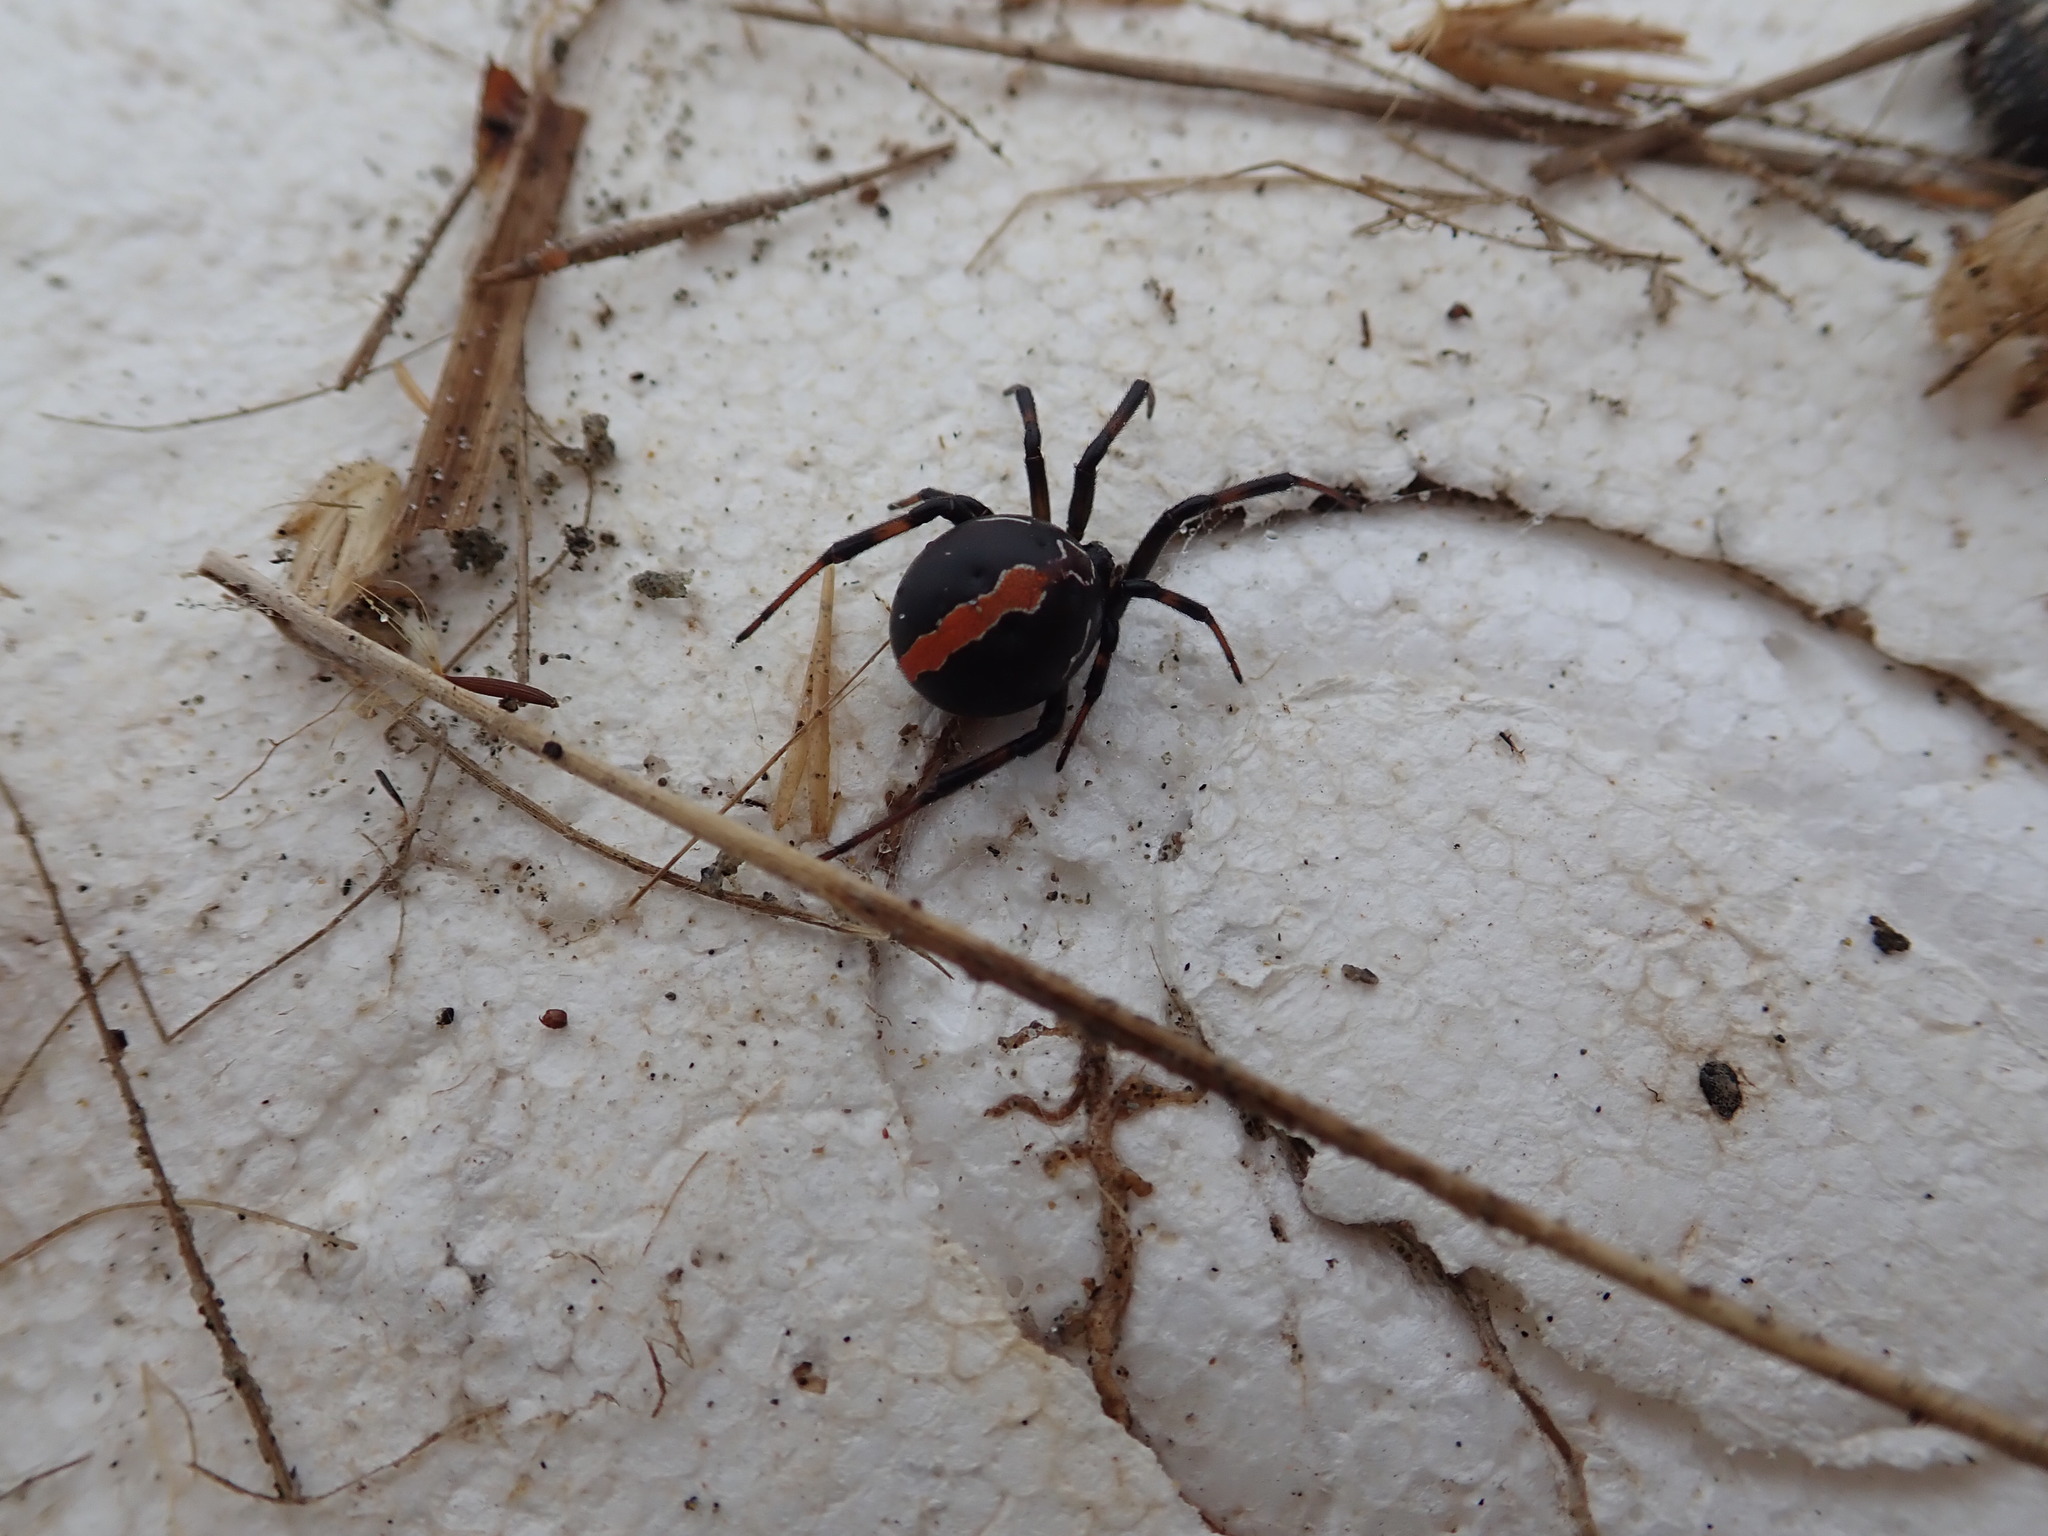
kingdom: Animalia
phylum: Arthropoda
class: Arachnida
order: Araneae
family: Theridiidae
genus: Latrodectus
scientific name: Latrodectus katipo
